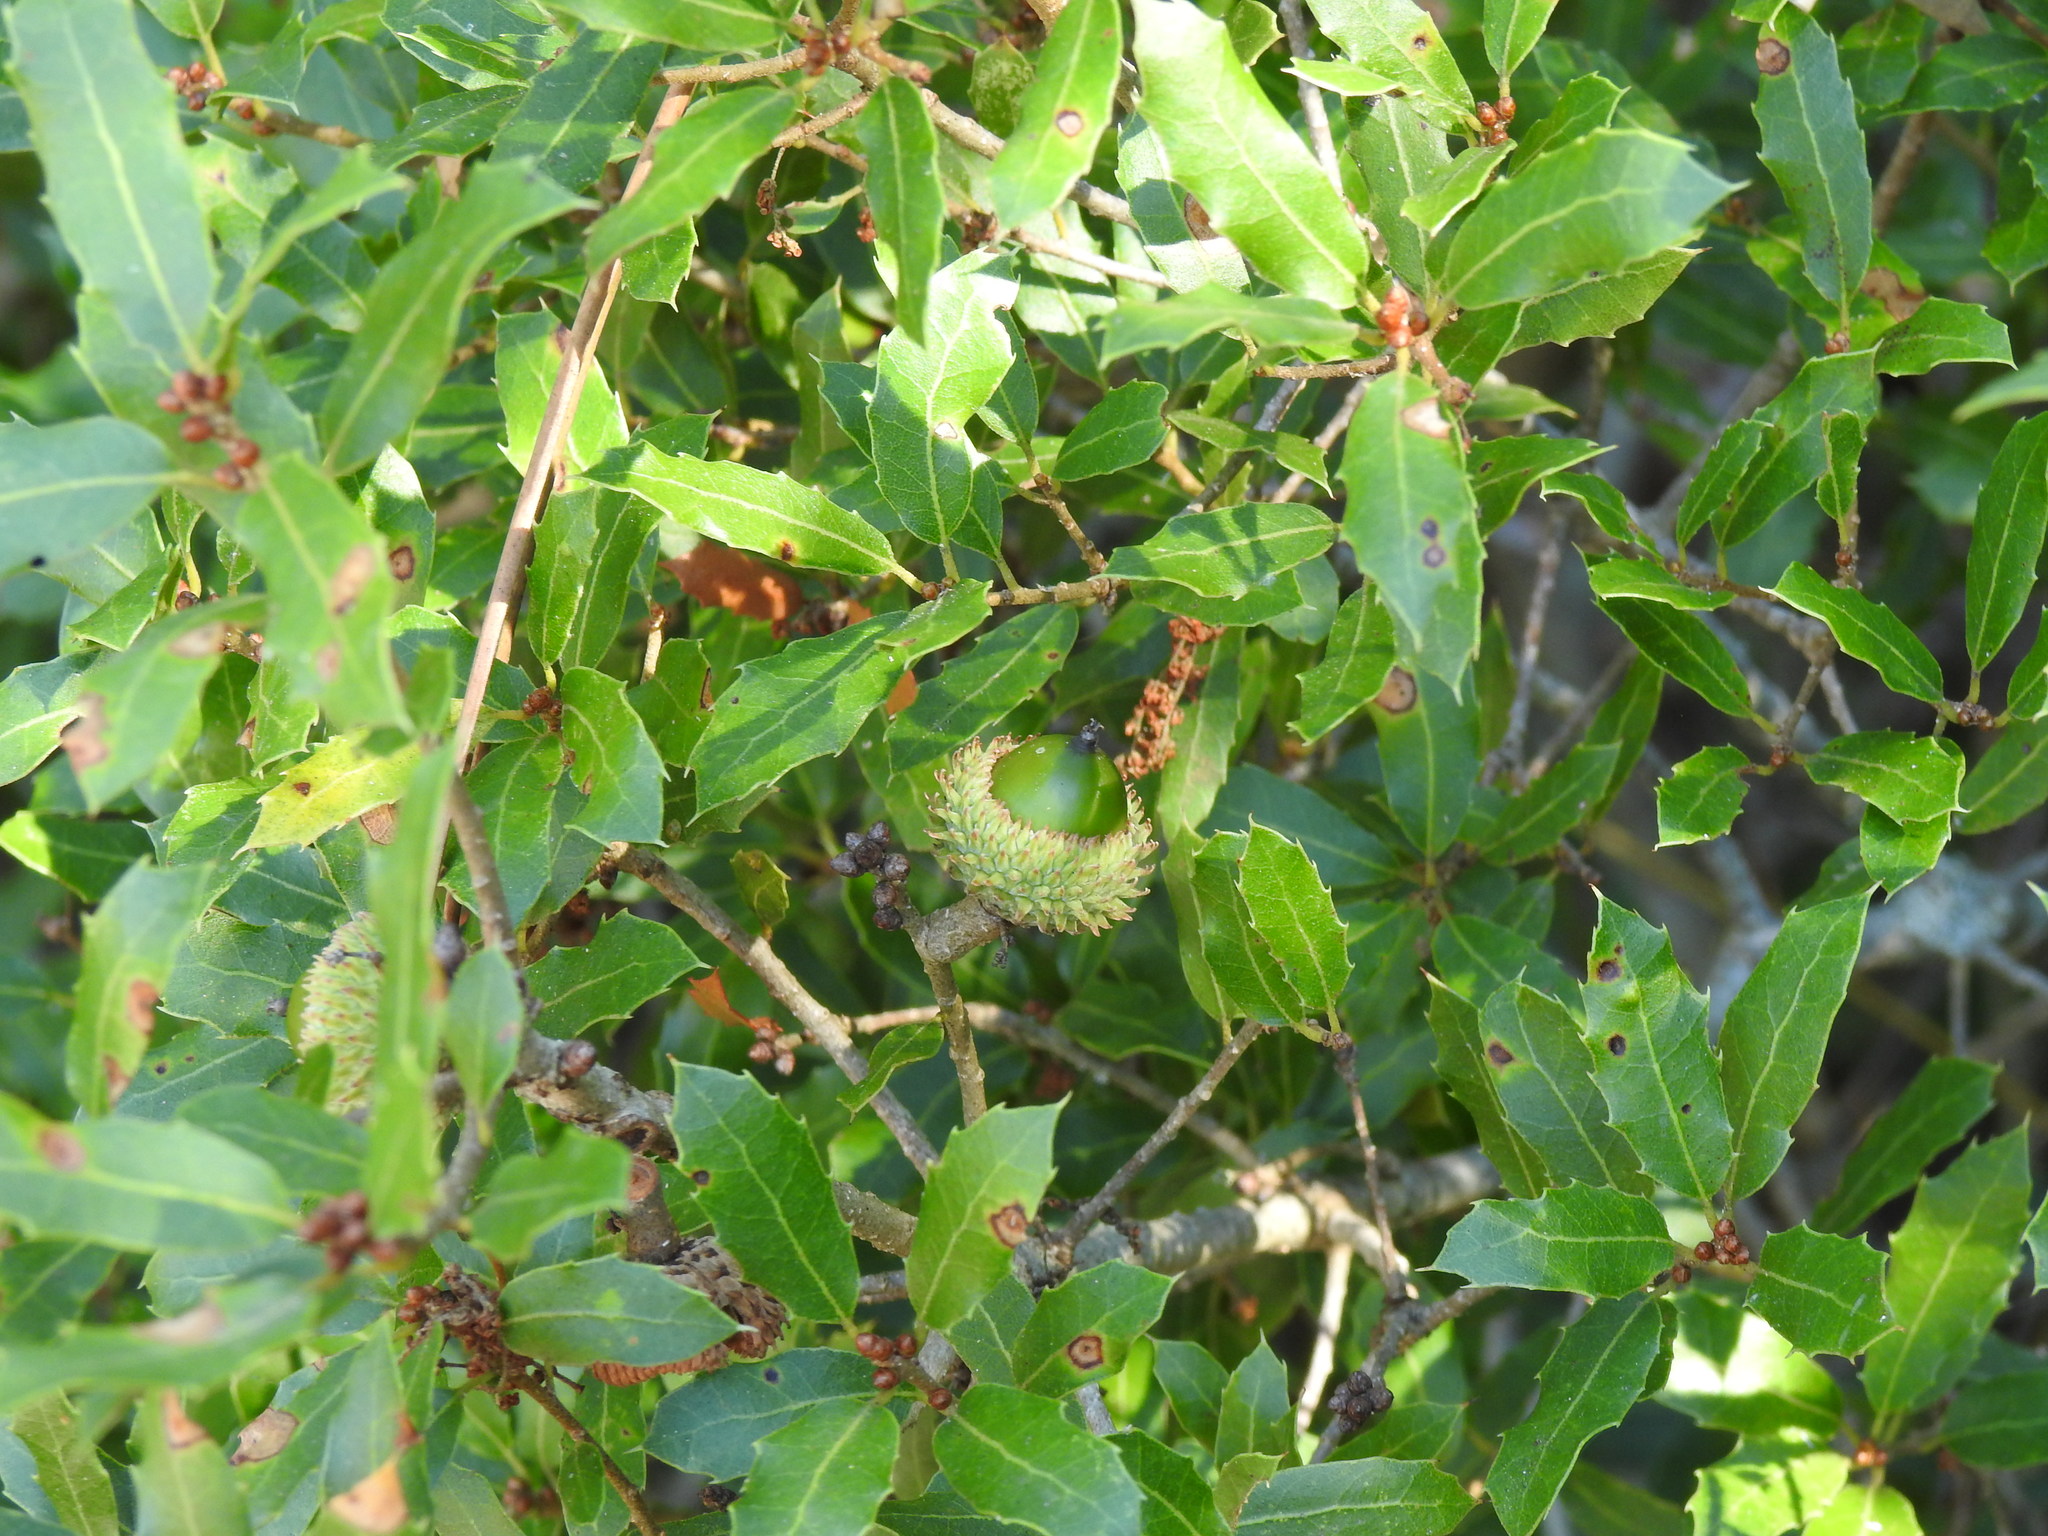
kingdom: Plantae
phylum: Tracheophyta
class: Magnoliopsida
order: Fagales
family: Fagaceae
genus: Quercus
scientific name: Quercus coccifera
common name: Kermes oak
